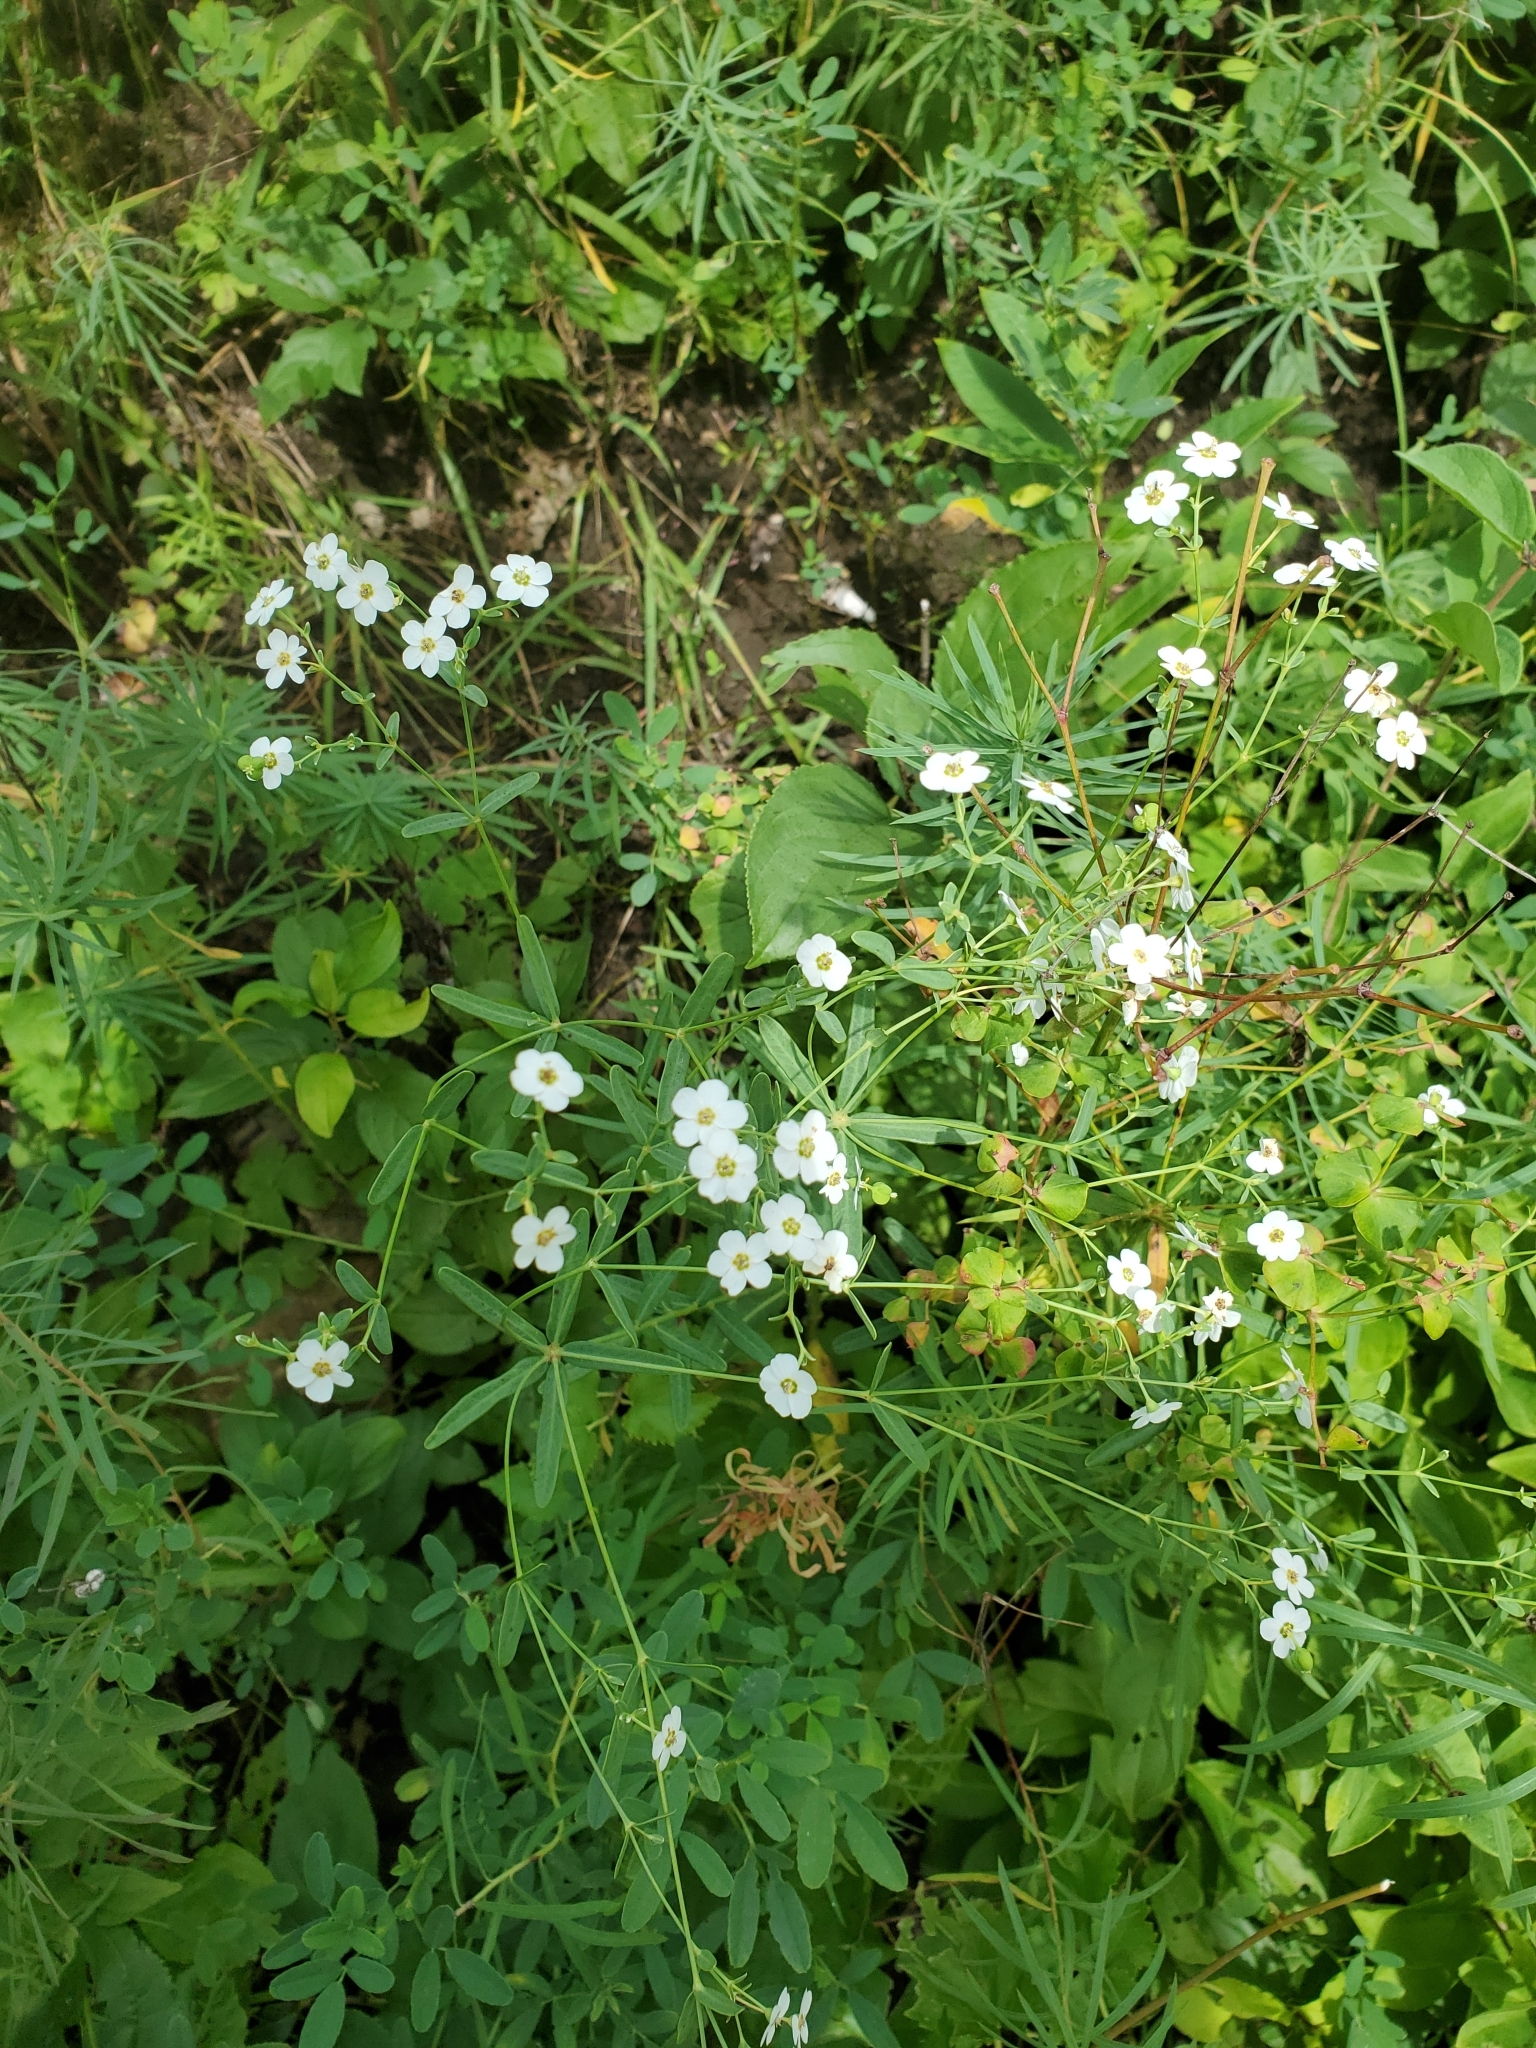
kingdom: Plantae
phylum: Tracheophyta
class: Magnoliopsida
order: Malpighiales
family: Euphorbiaceae
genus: Euphorbia
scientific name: Euphorbia corollata
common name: Flowering spurge
